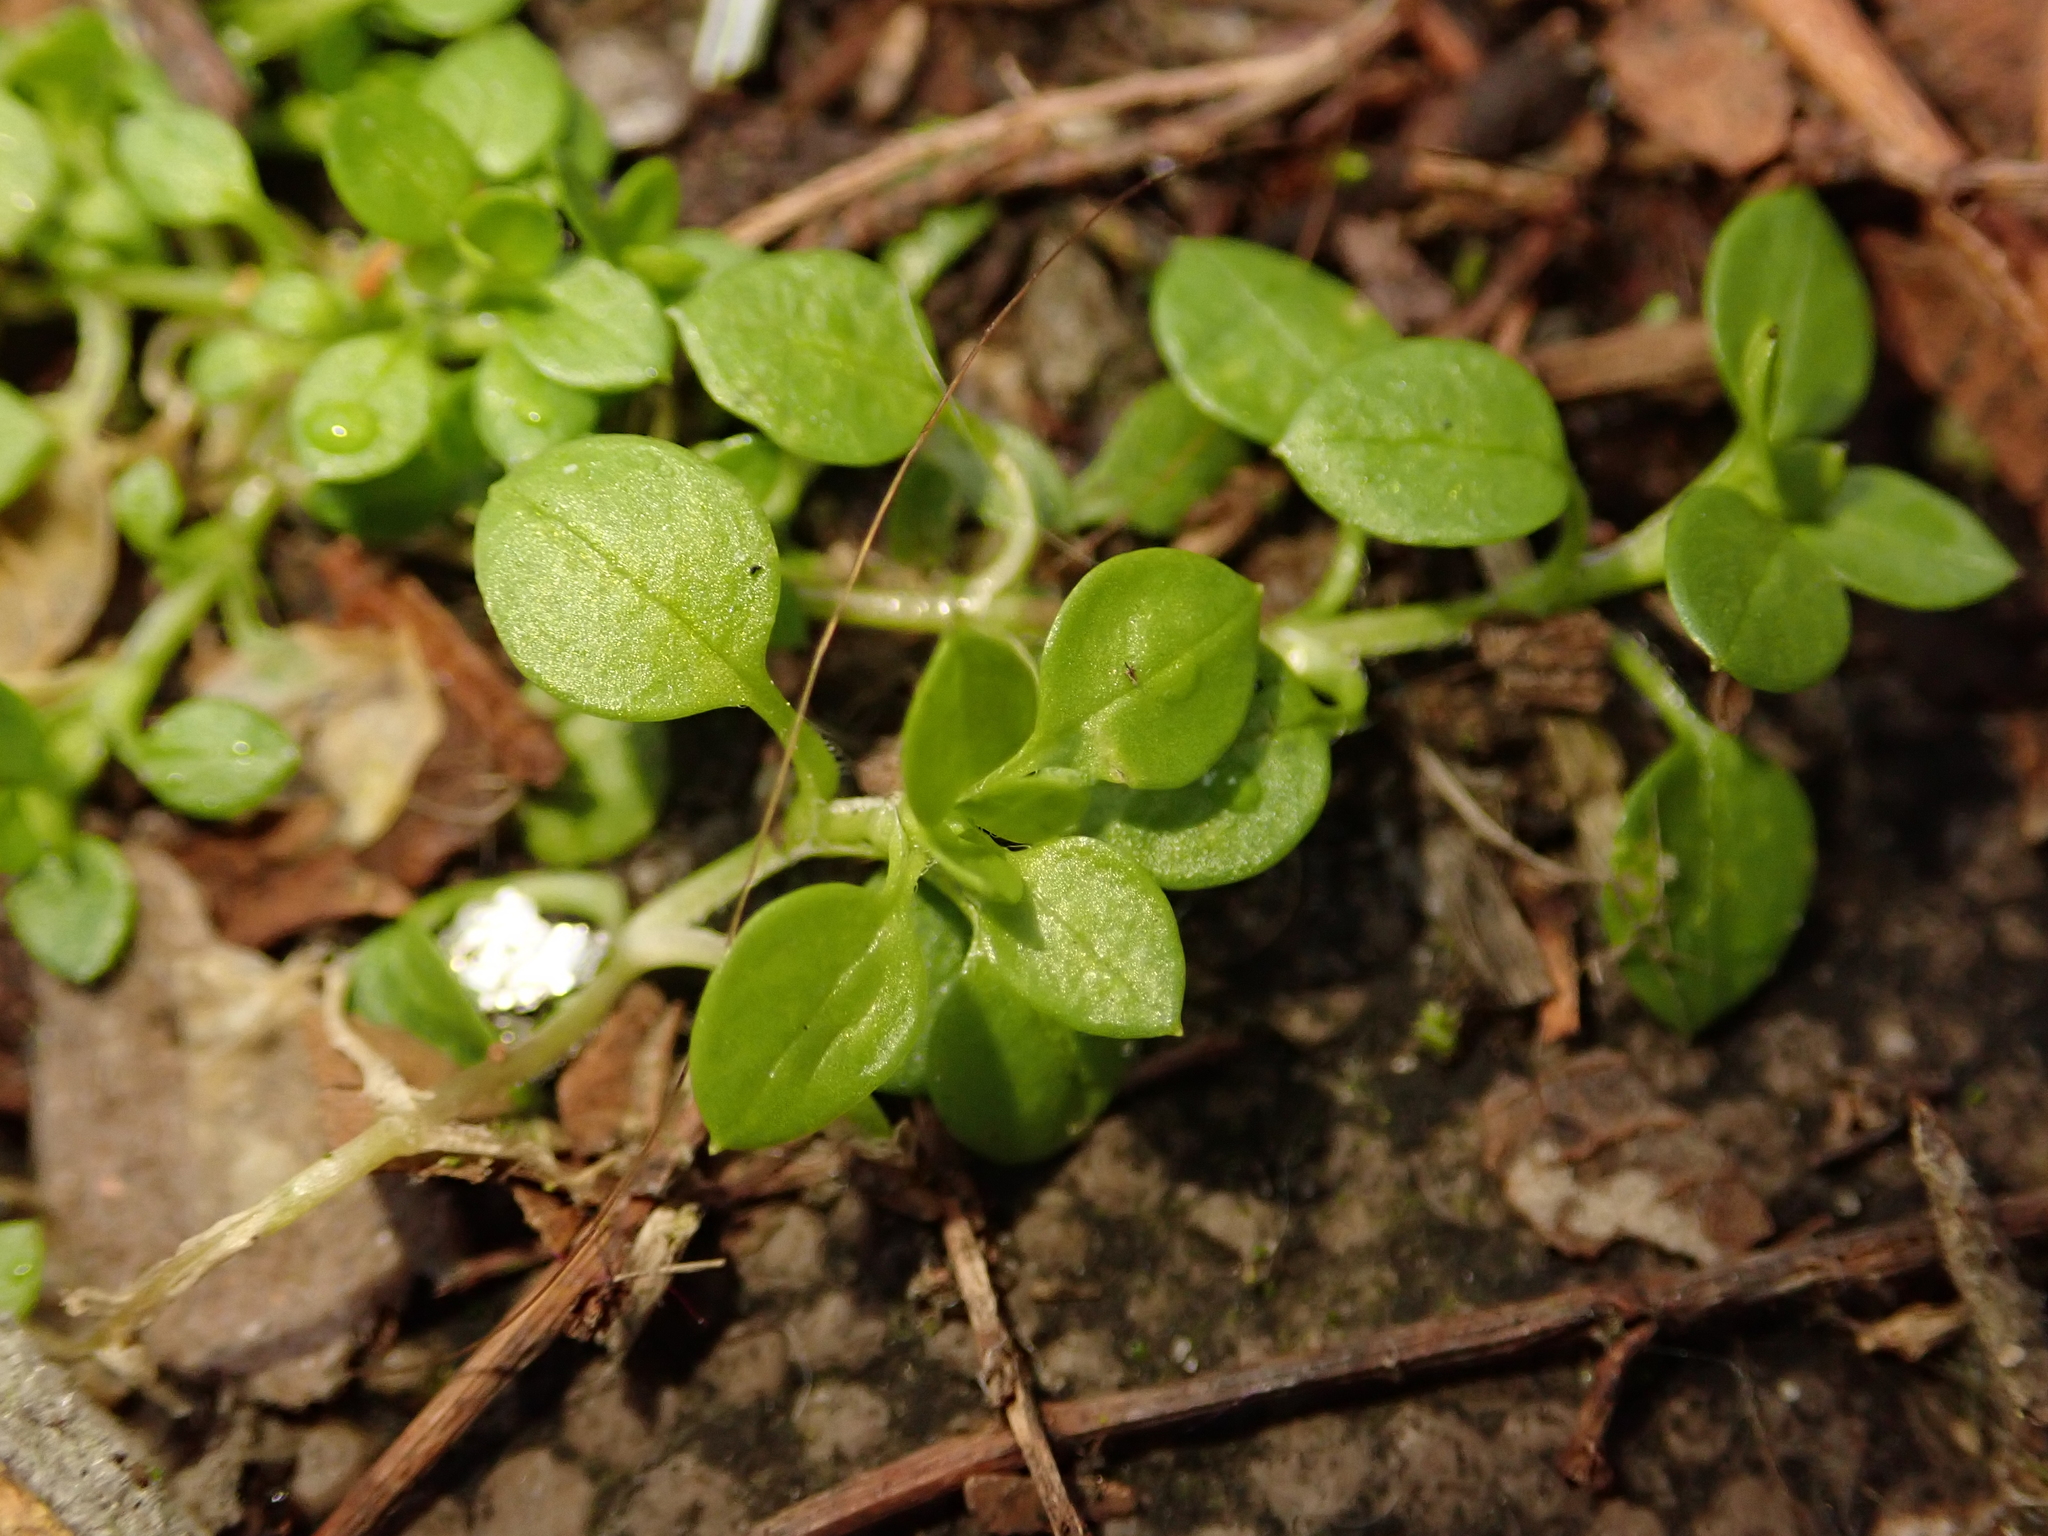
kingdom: Plantae
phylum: Tracheophyta
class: Magnoliopsida
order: Caryophyllales
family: Caryophyllaceae
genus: Stellaria
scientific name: Stellaria media
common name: Common chickweed
